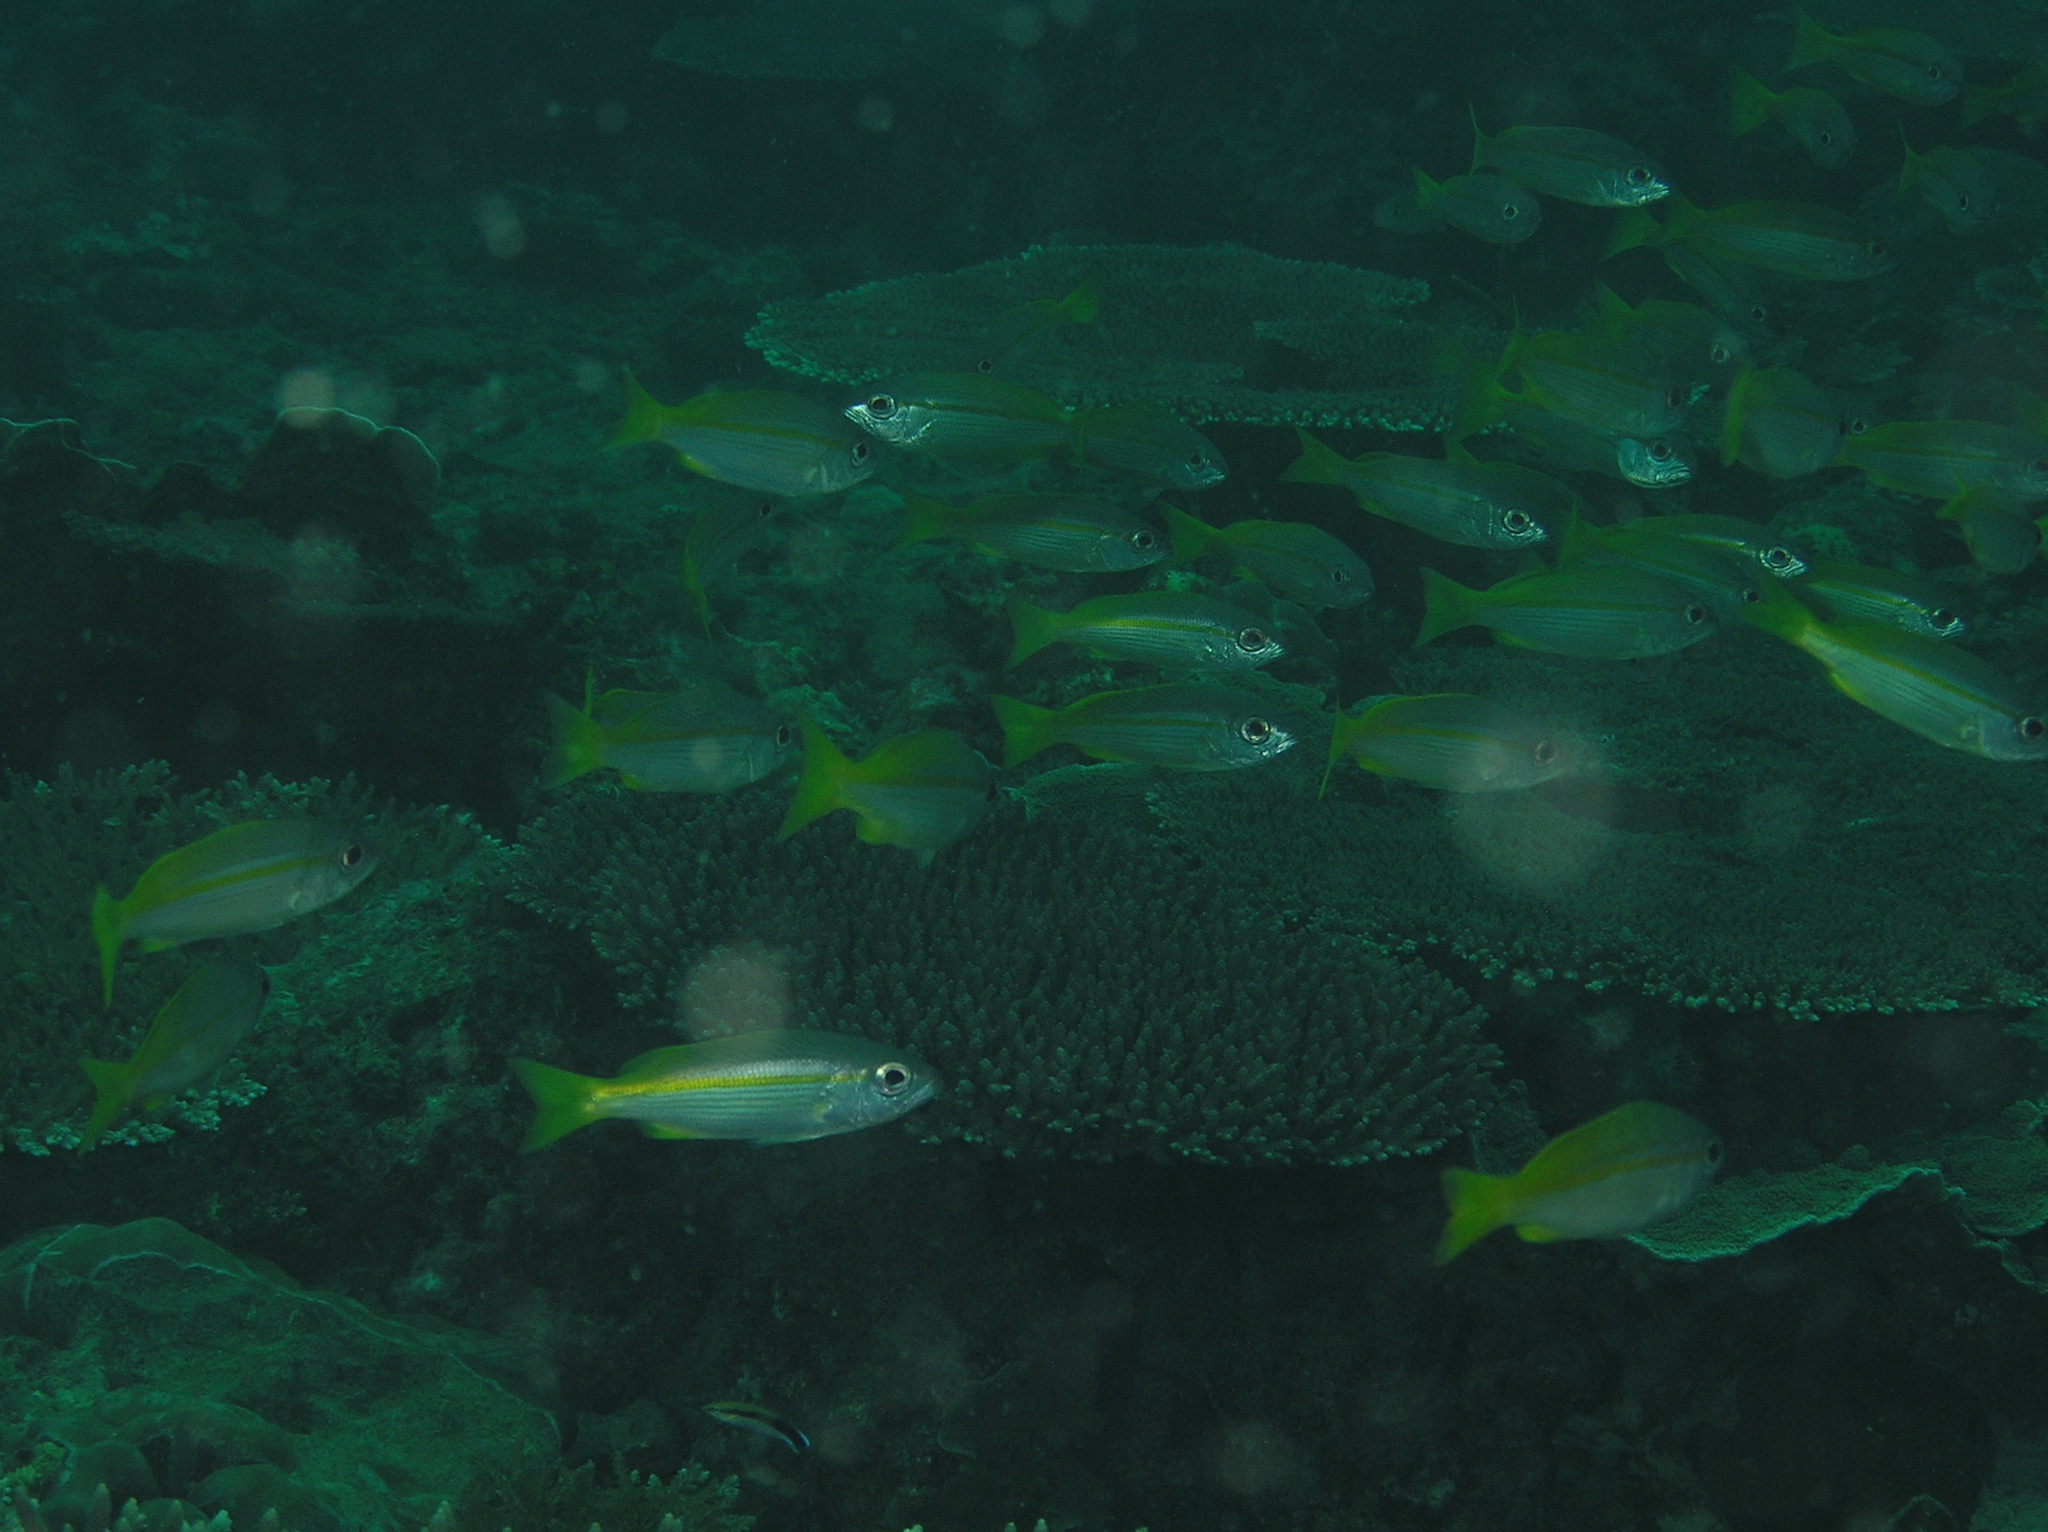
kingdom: Animalia
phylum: Chordata
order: Perciformes
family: Lutjanidae
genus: Lutjanus
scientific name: Lutjanus lutjanus
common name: Bigeye snapper
